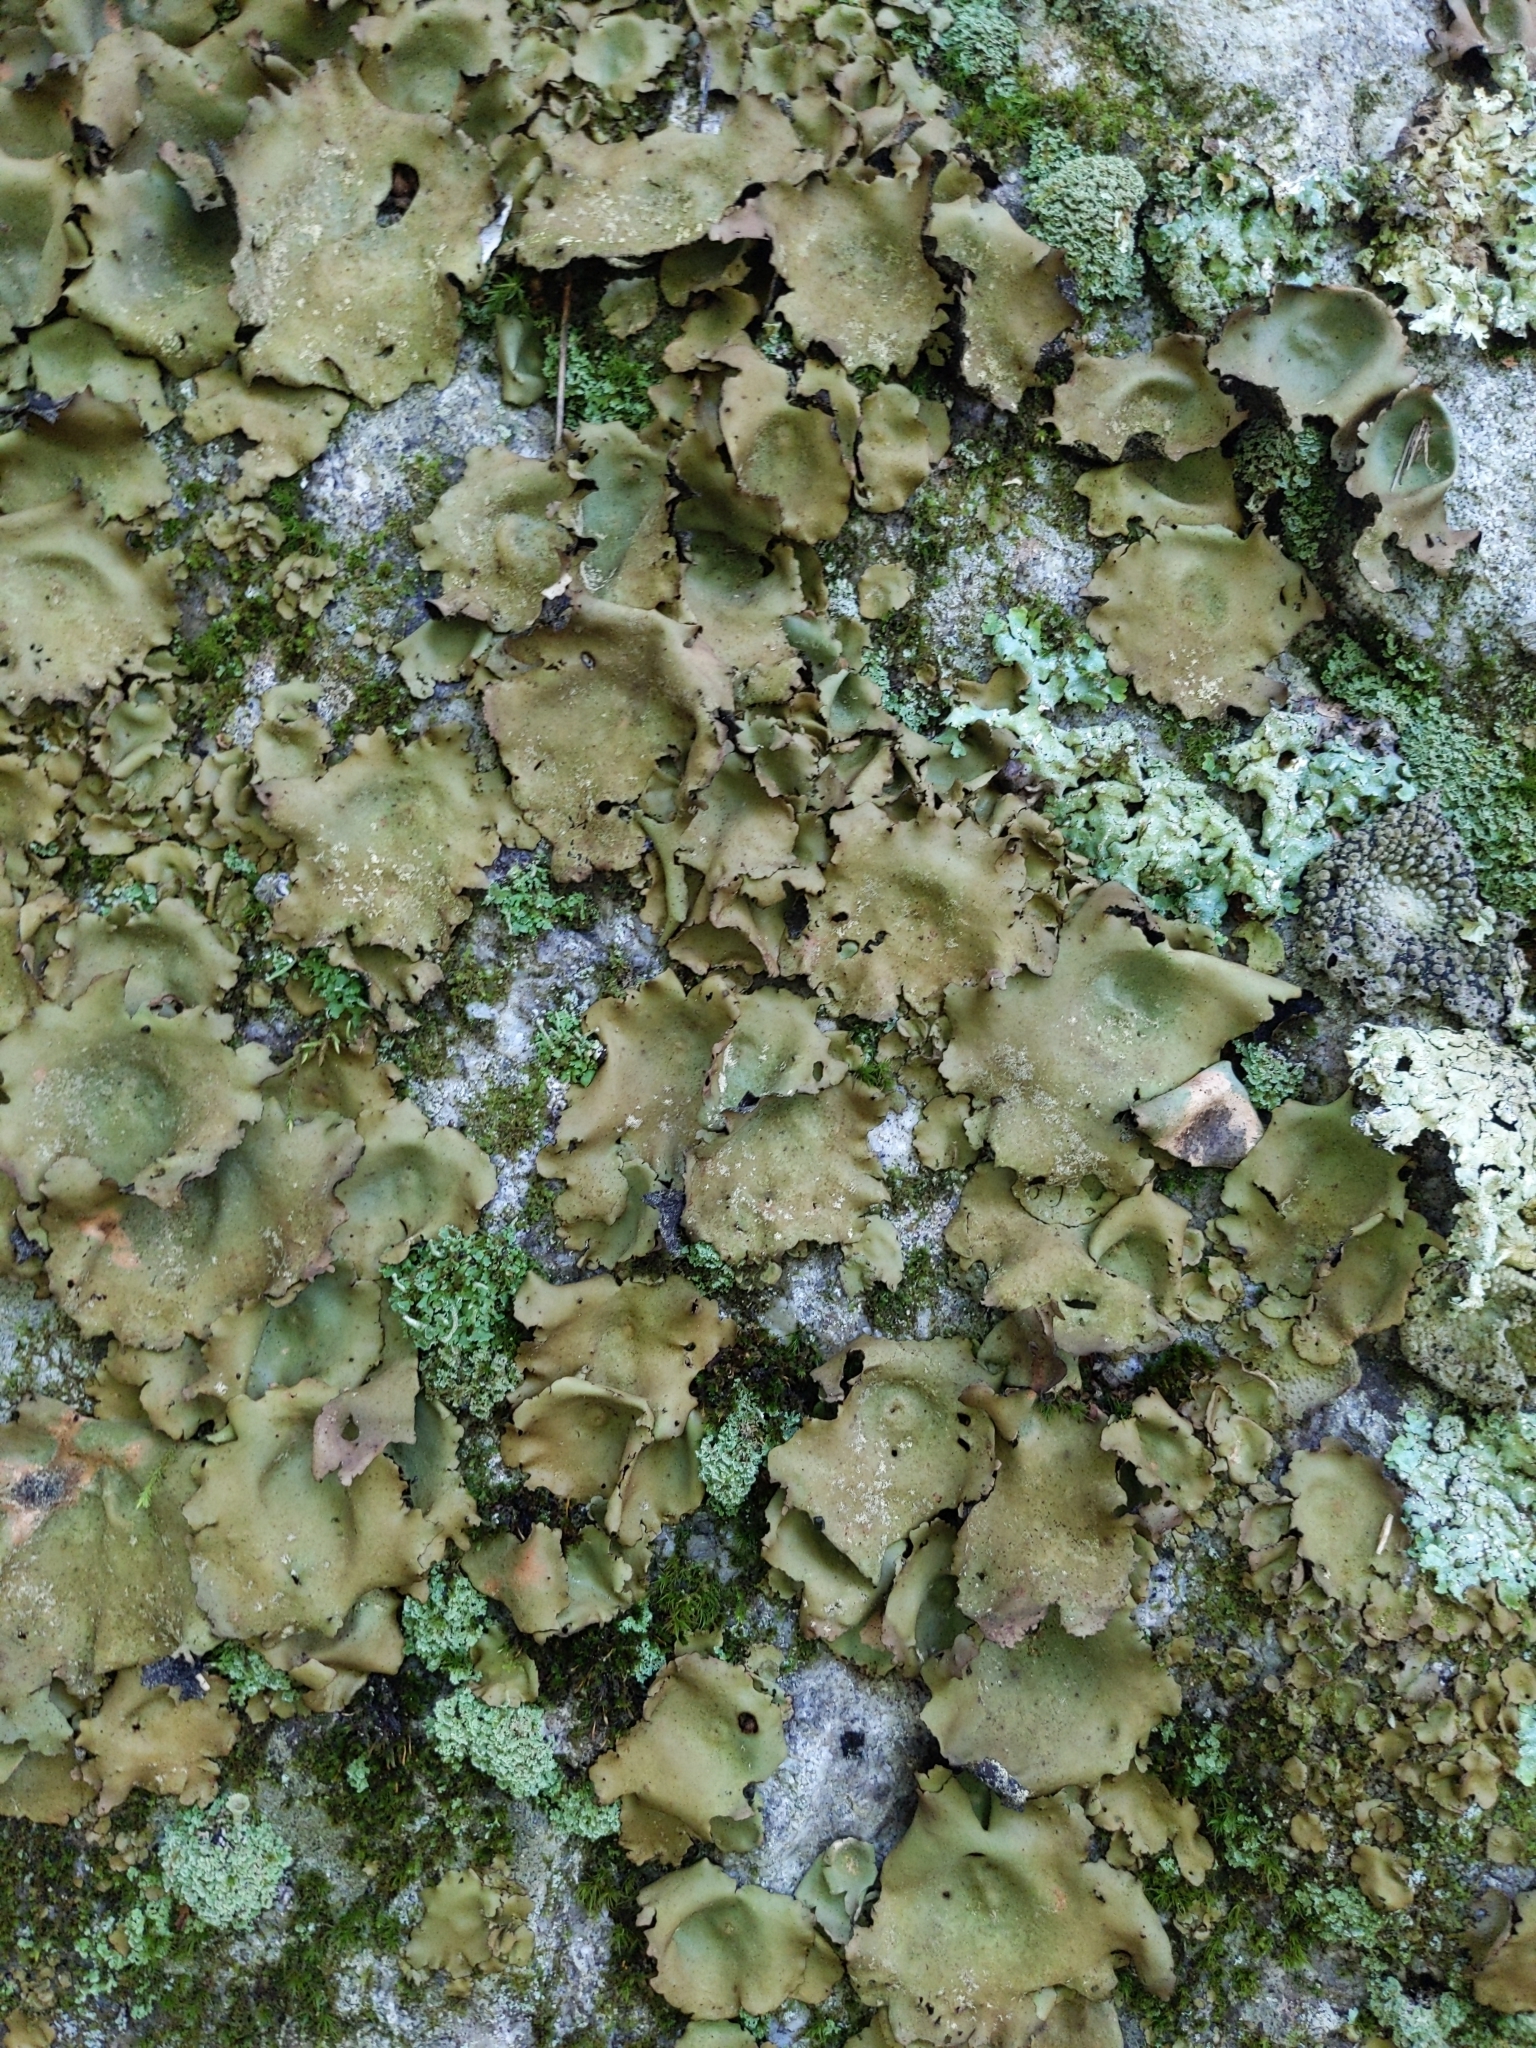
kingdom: Fungi
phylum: Ascomycota
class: Lecanoromycetes
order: Umbilicariales
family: Umbilicariaceae
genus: Umbilicaria
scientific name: Umbilicaria mammulata
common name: Smooth rock tripe
